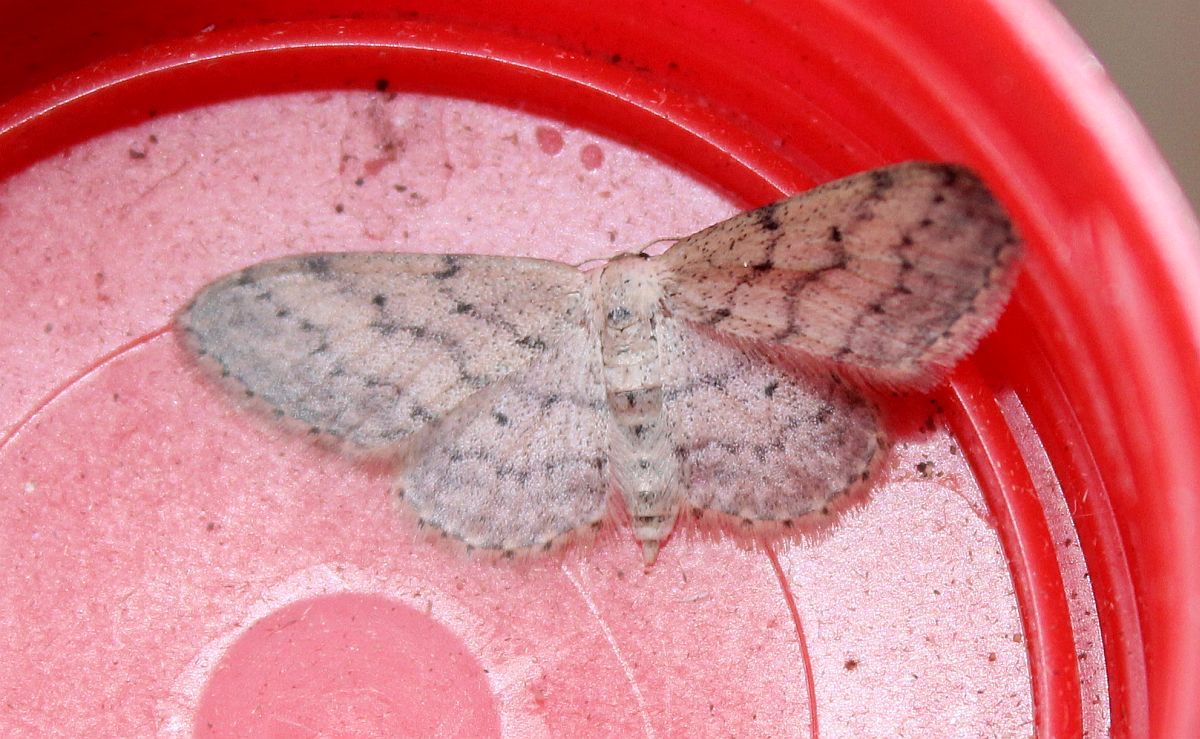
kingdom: Animalia
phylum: Arthropoda
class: Insecta
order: Lepidoptera
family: Geometridae
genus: Idaea
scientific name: Idaea seriata
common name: Small dusty wave
